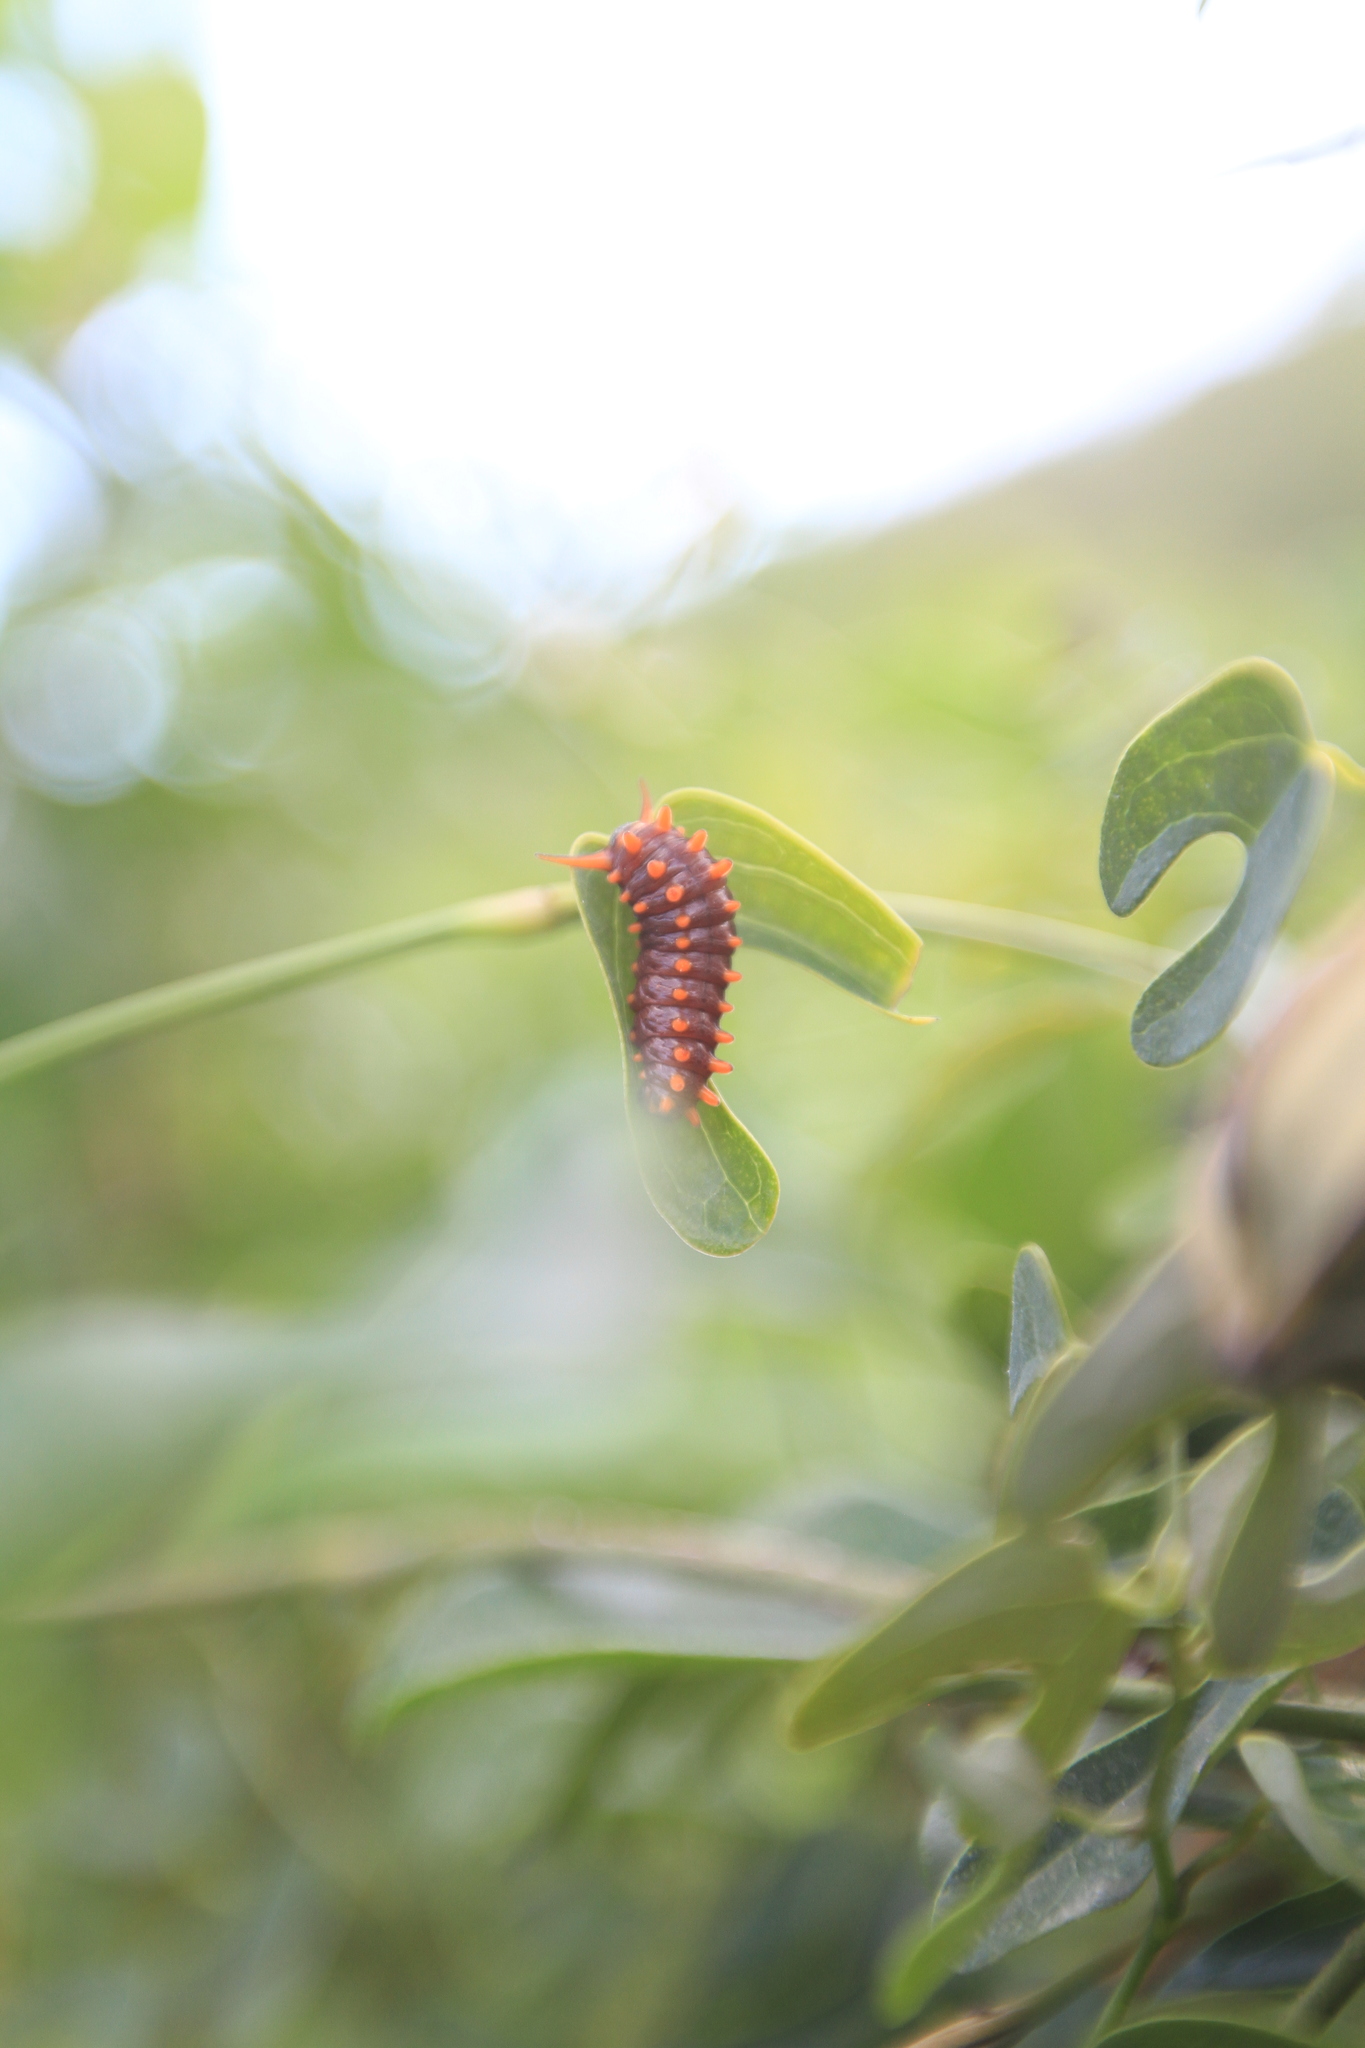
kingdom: Animalia
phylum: Arthropoda
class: Insecta
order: Lepidoptera
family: Papilionidae
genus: Battus
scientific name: Battus polydamas
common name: Polydamas swallowtail
